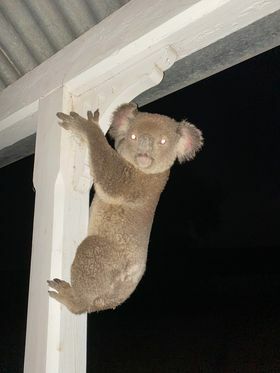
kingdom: Animalia
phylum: Chordata
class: Mammalia
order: Diprotodontia
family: Phascolarctidae
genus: Phascolarctos
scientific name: Phascolarctos cinereus
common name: Koala
